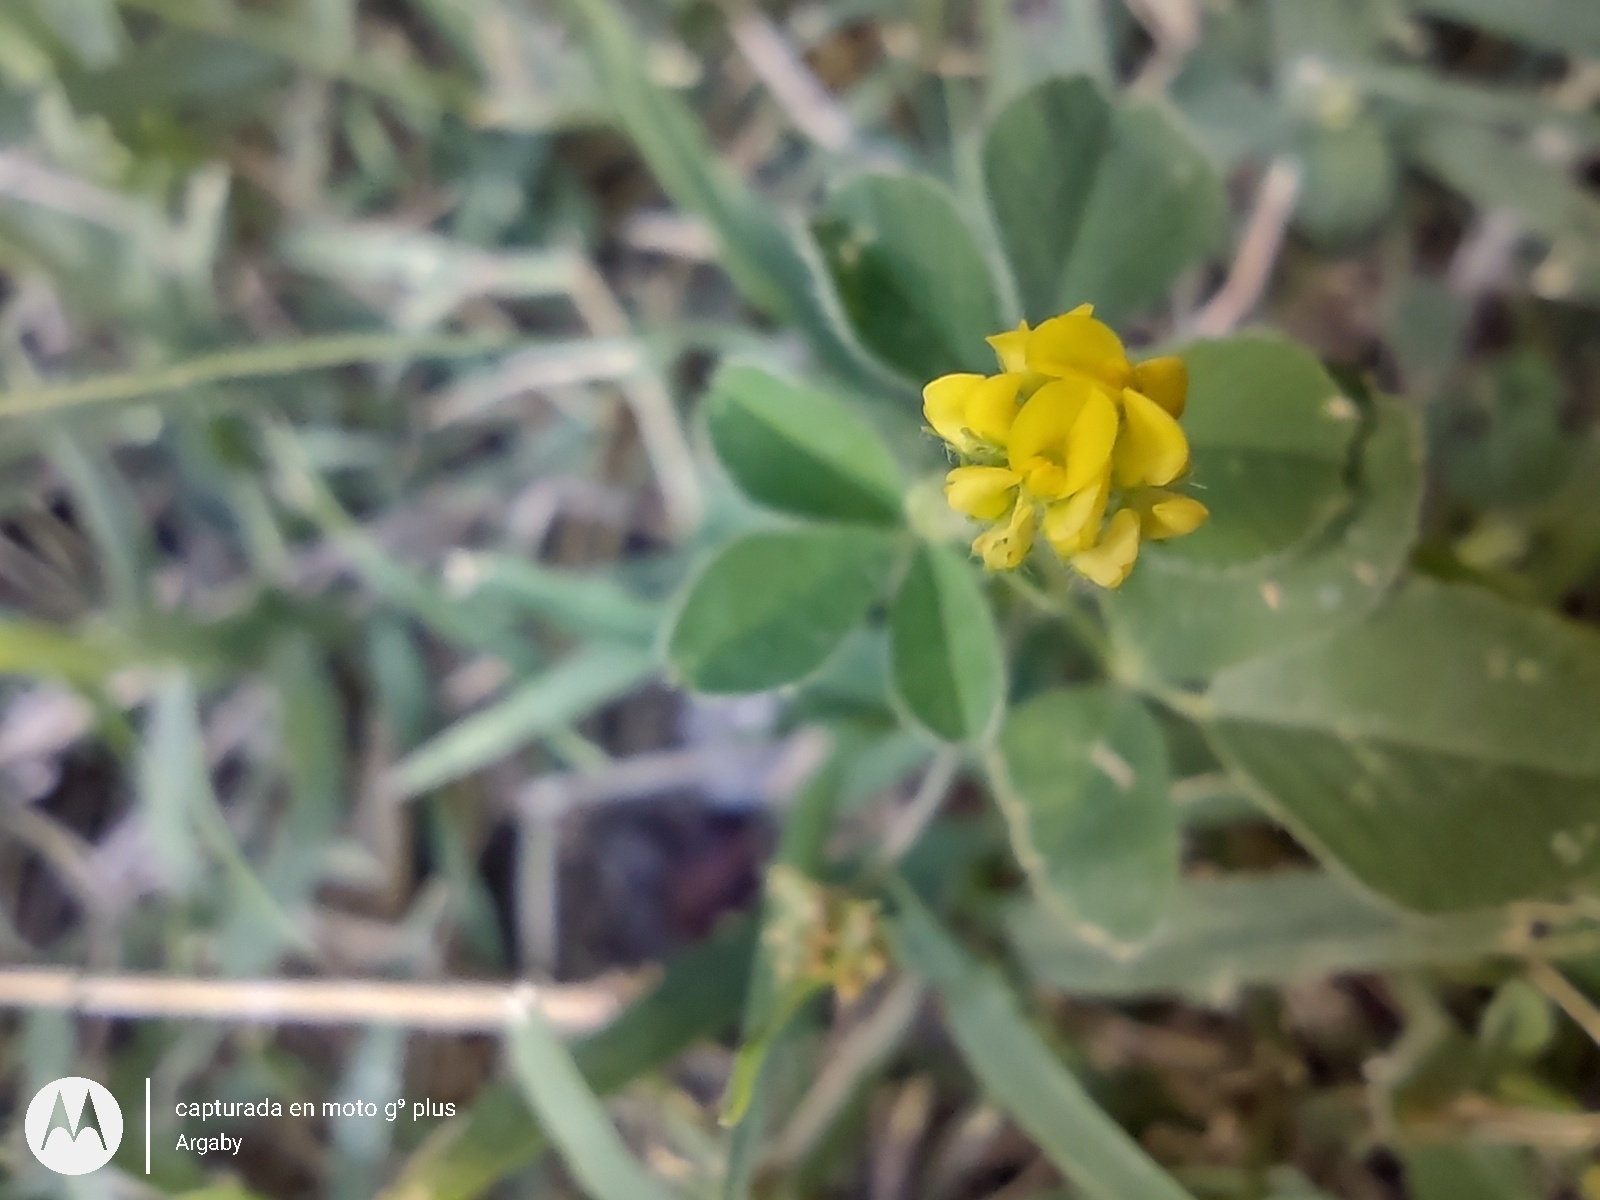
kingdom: Plantae
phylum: Tracheophyta
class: Magnoliopsida
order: Fabales
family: Fabaceae
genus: Medicago
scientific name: Medicago lupulina
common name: Black medick
